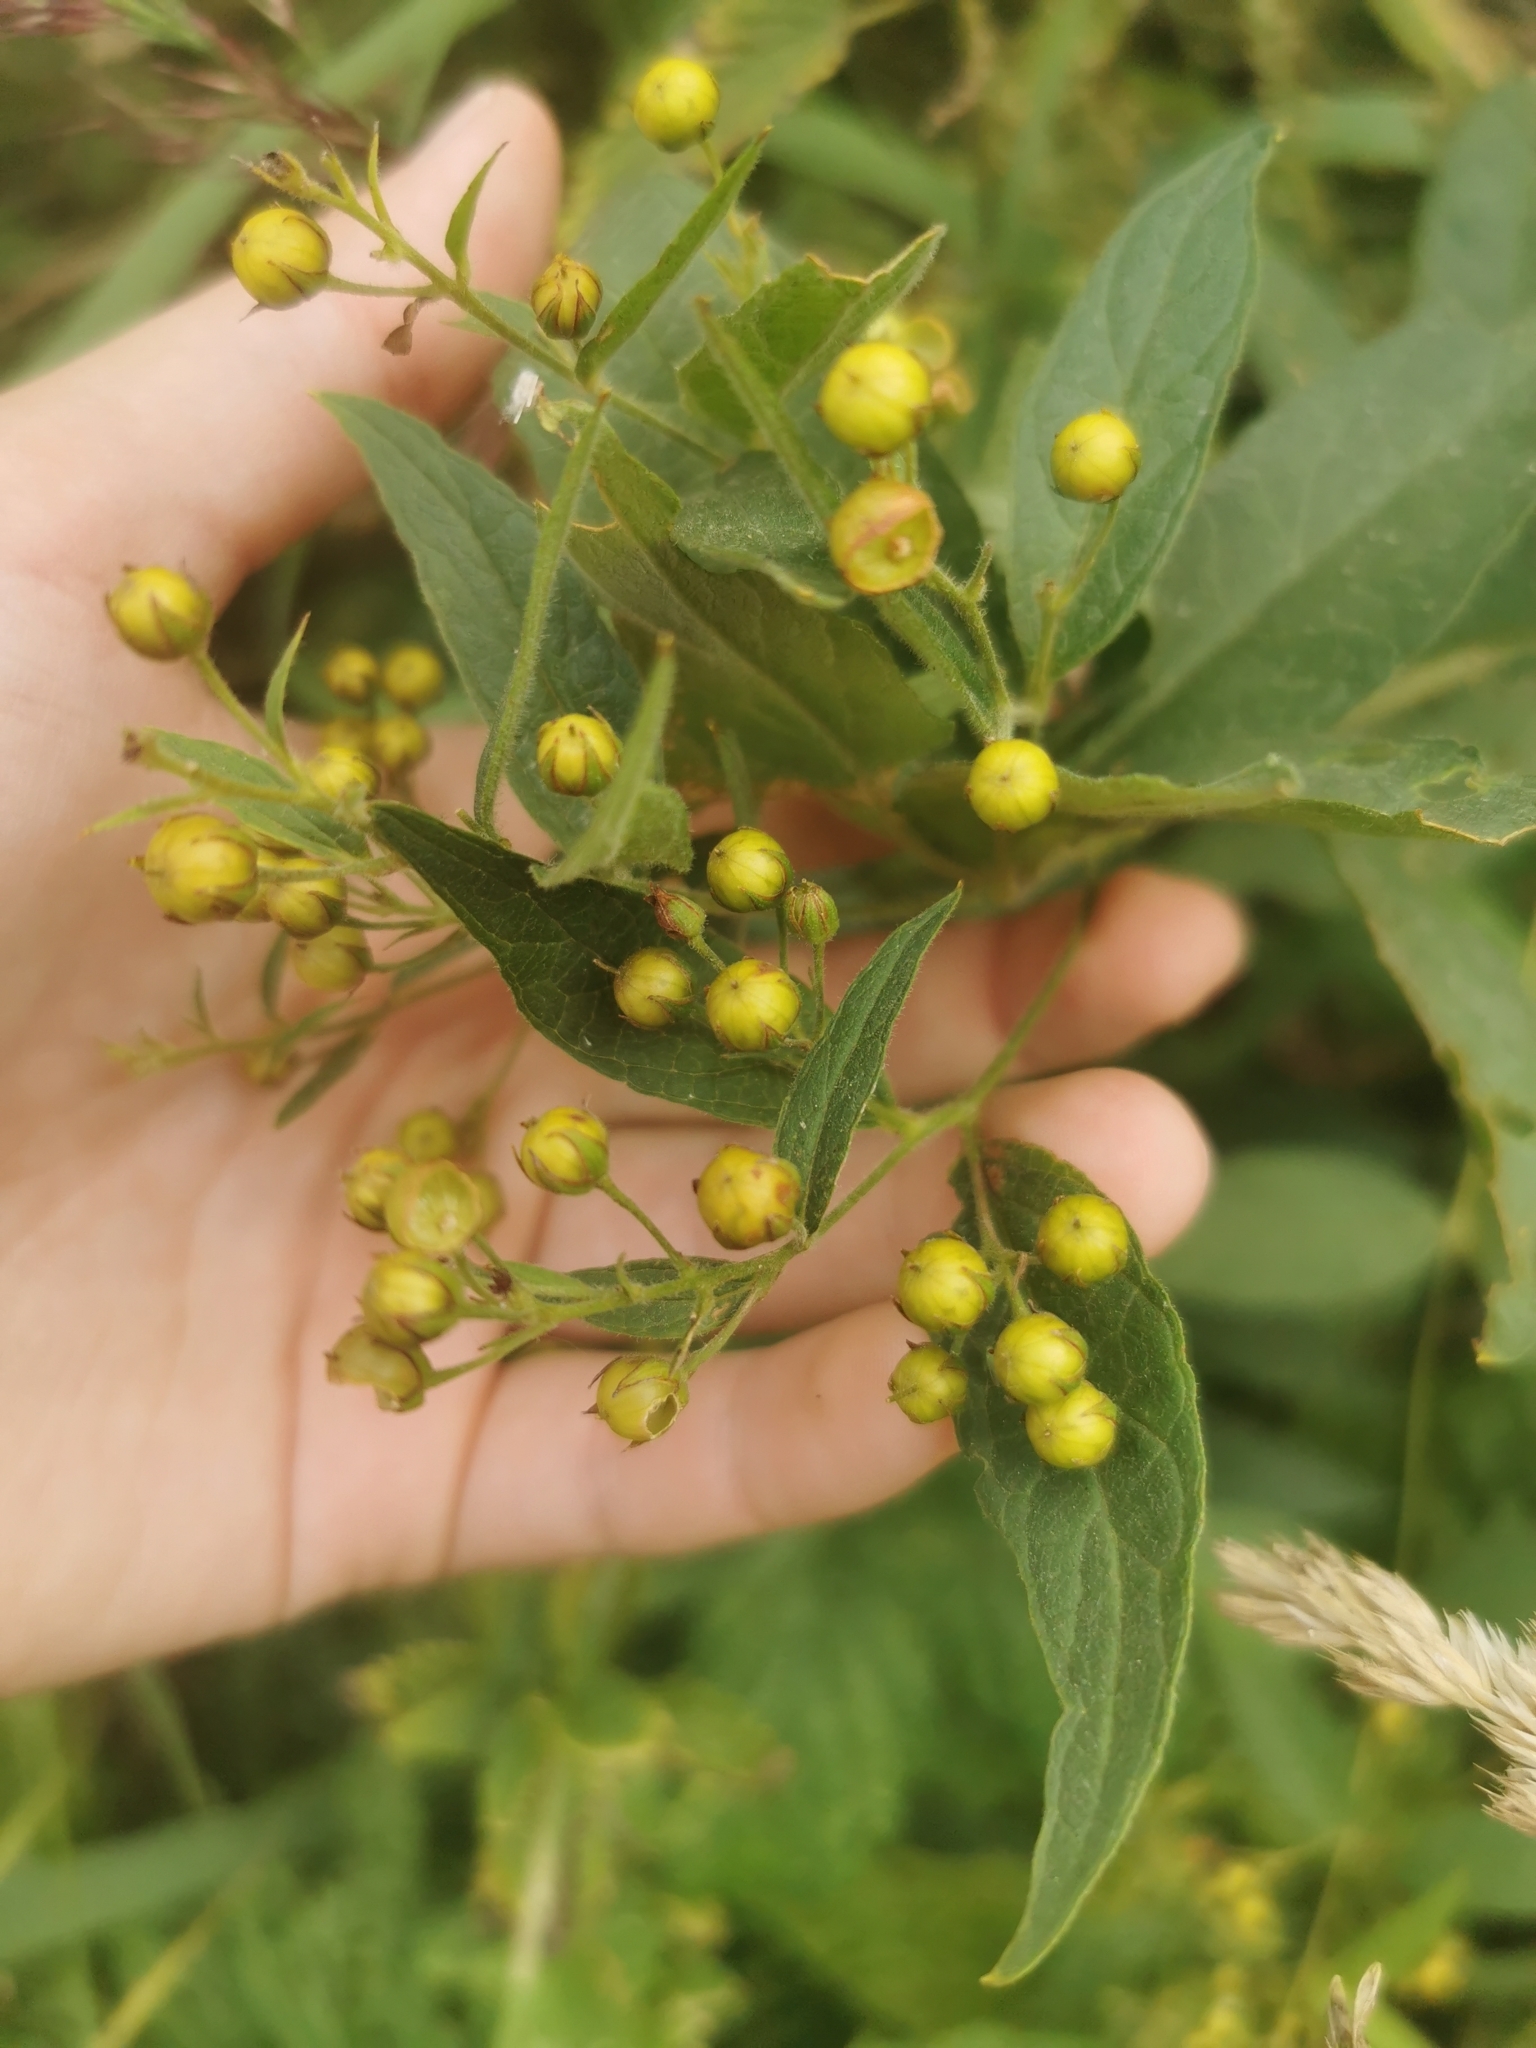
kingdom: Plantae
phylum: Tracheophyta
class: Magnoliopsida
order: Ericales
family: Primulaceae
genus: Lysimachia
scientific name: Lysimachia vulgaris
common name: Yellow loosestrife
